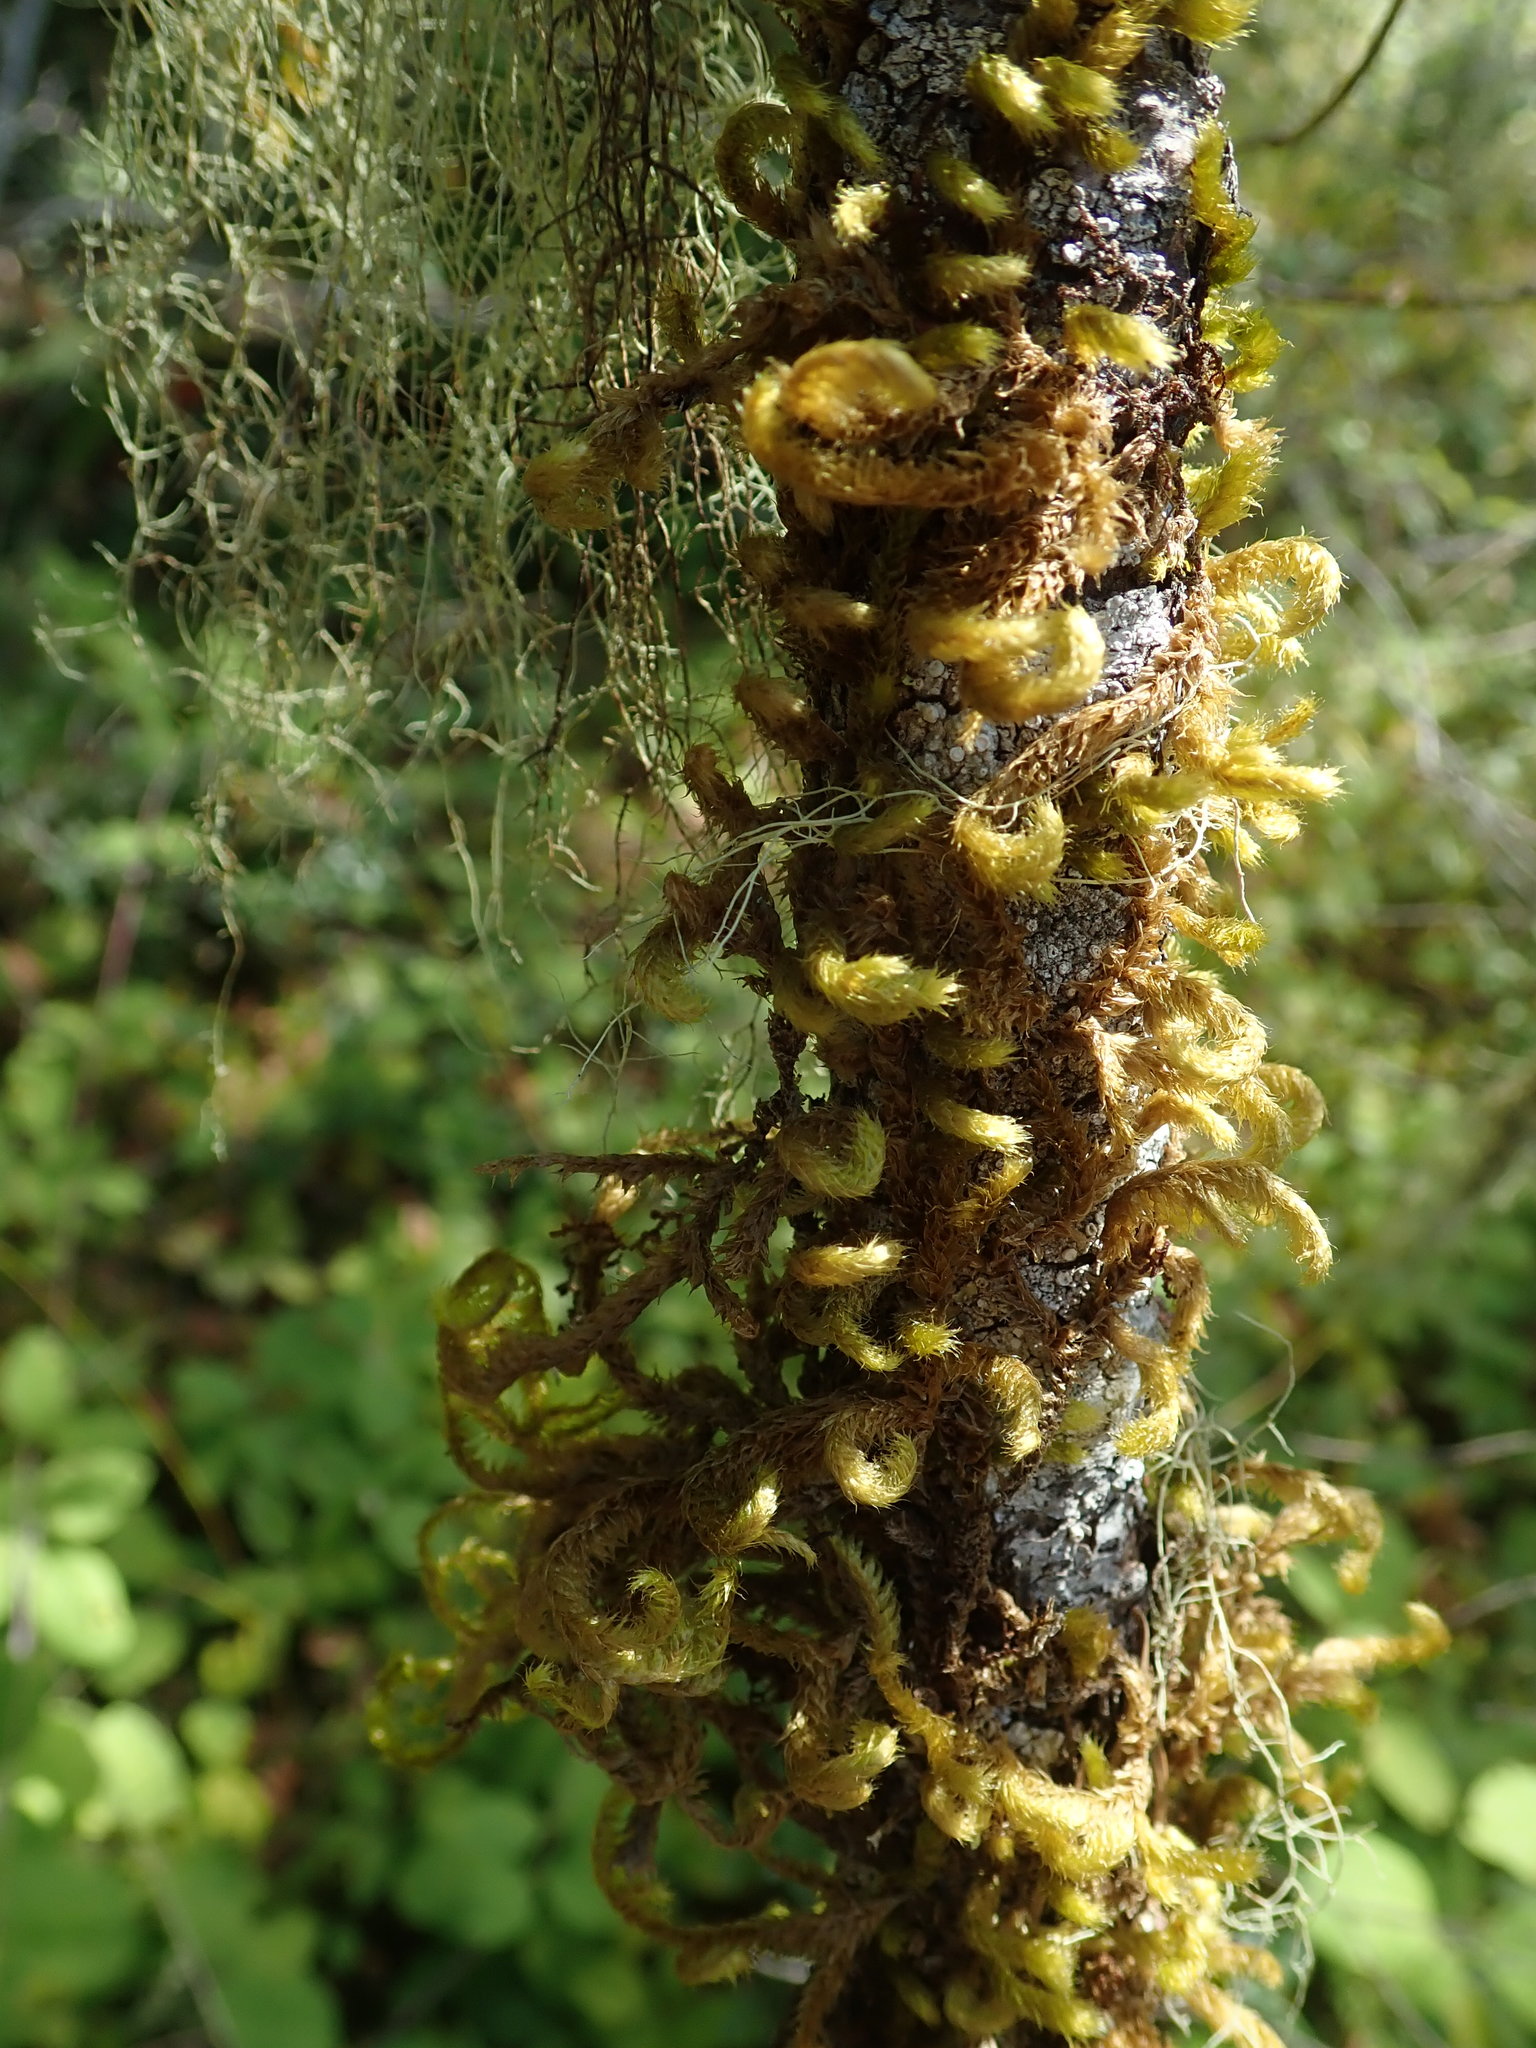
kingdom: Plantae
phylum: Bryophyta
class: Bryopsida
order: Hypnales
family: Brachytheciaceae
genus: Homalothecium
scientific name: Homalothecium fulgescens
